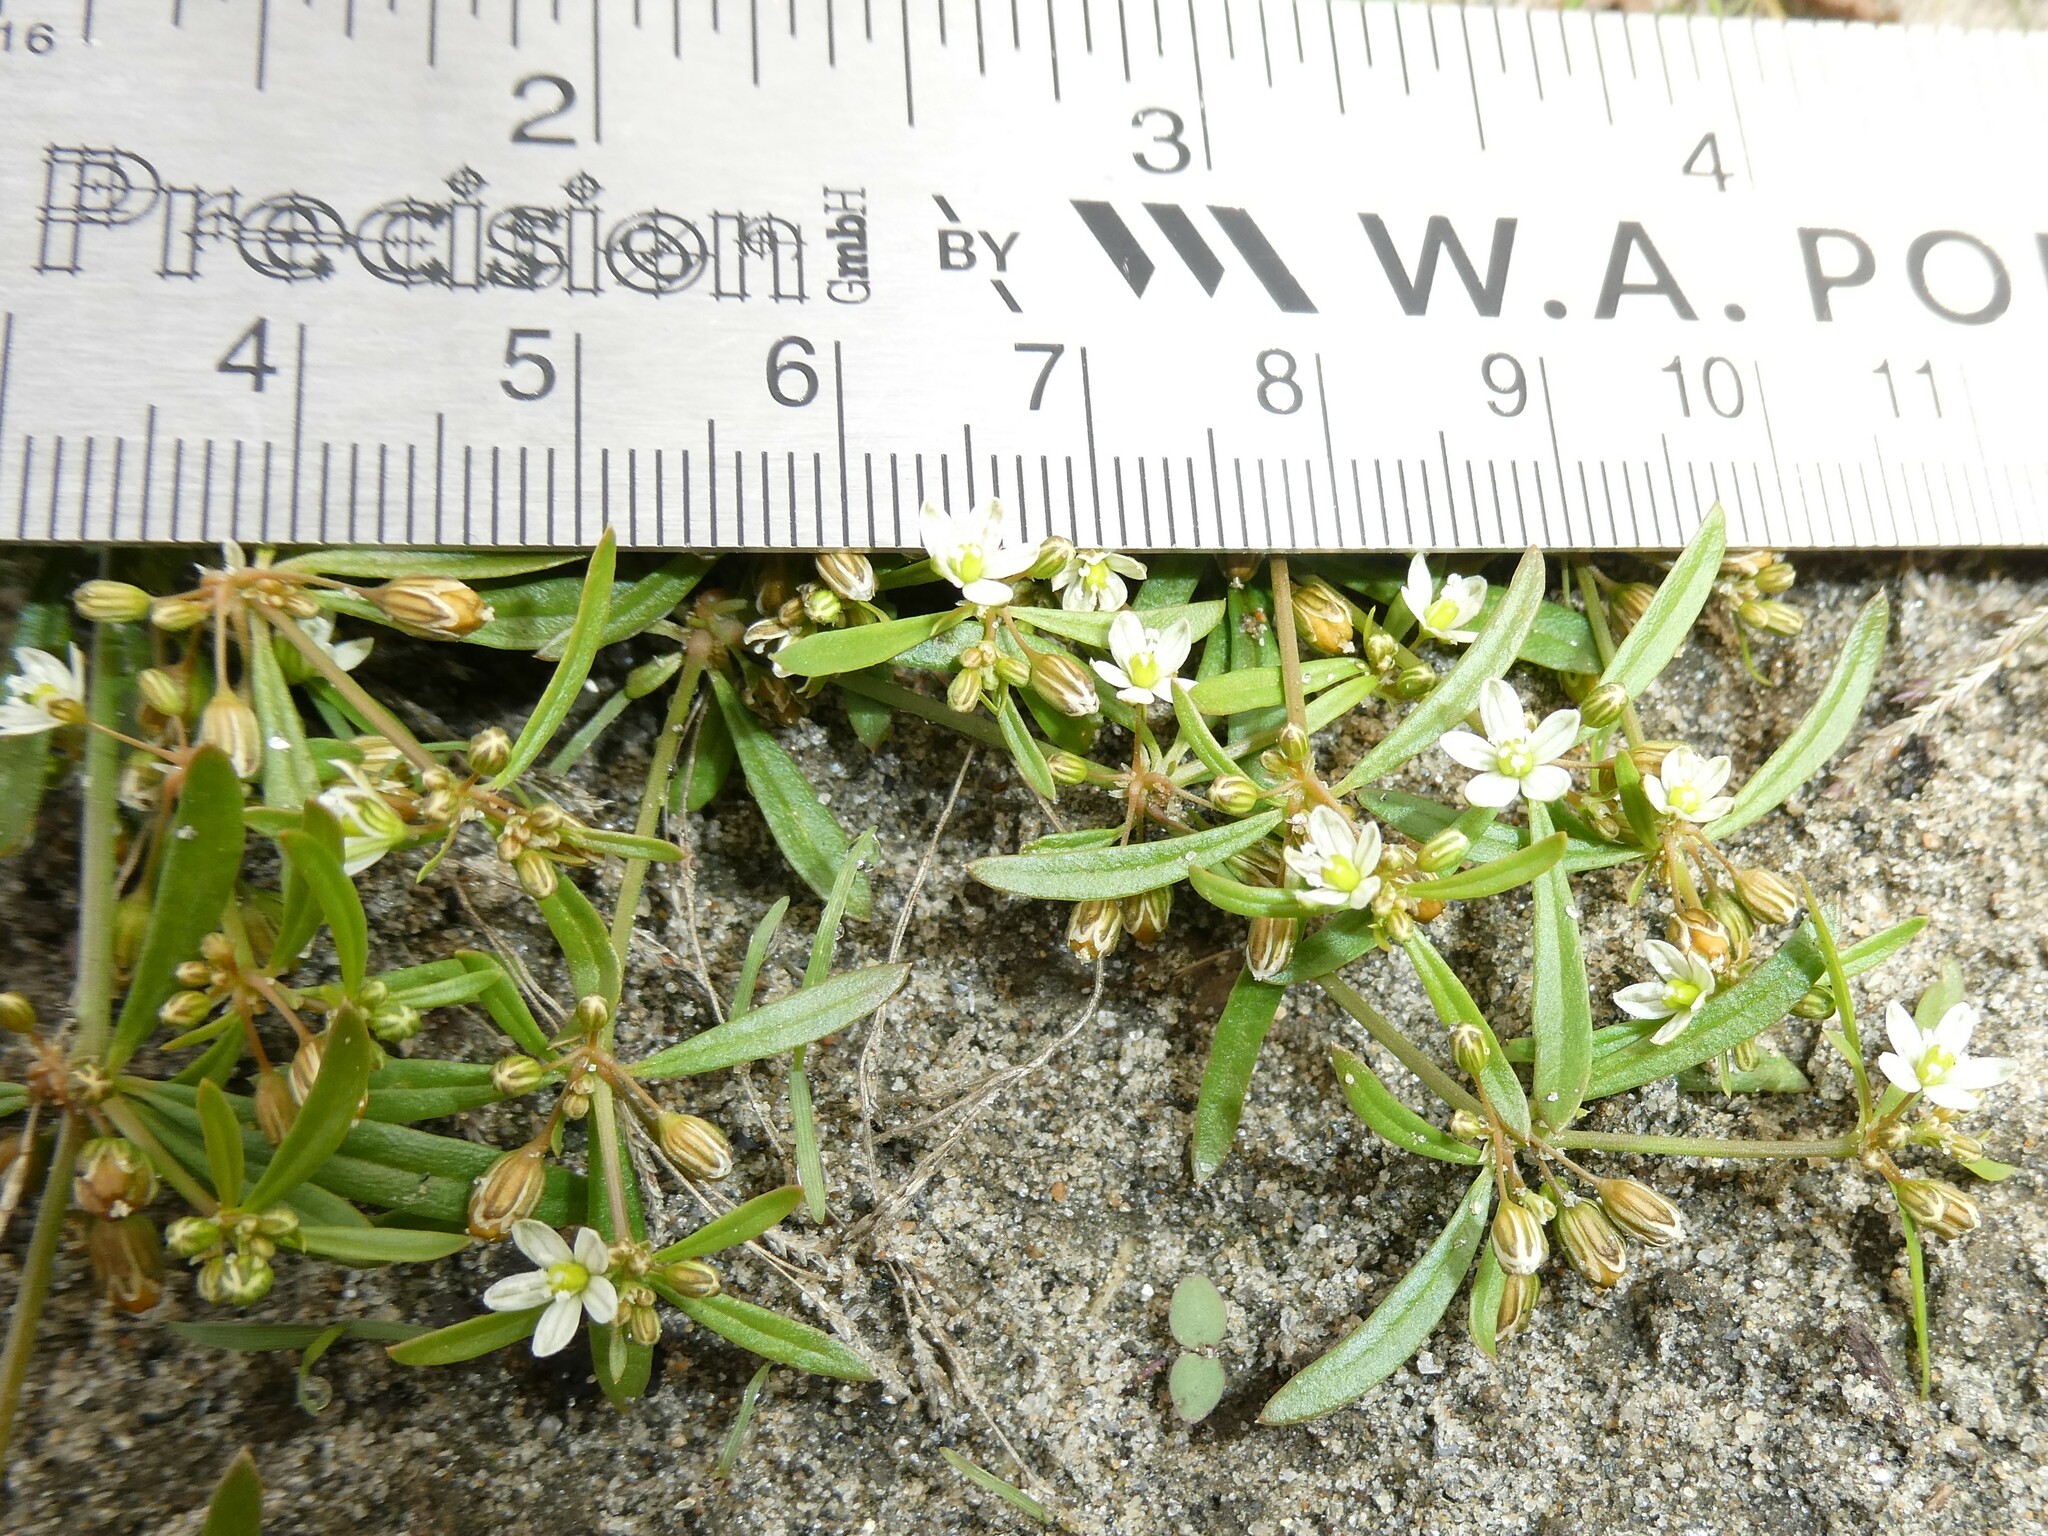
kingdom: Plantae
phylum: Tracheophyta
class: Magnoliopsida
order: Caryophyllales
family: Molluginaceae
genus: Mollugo
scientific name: Mollugo verticillata
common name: Green carpetweed
